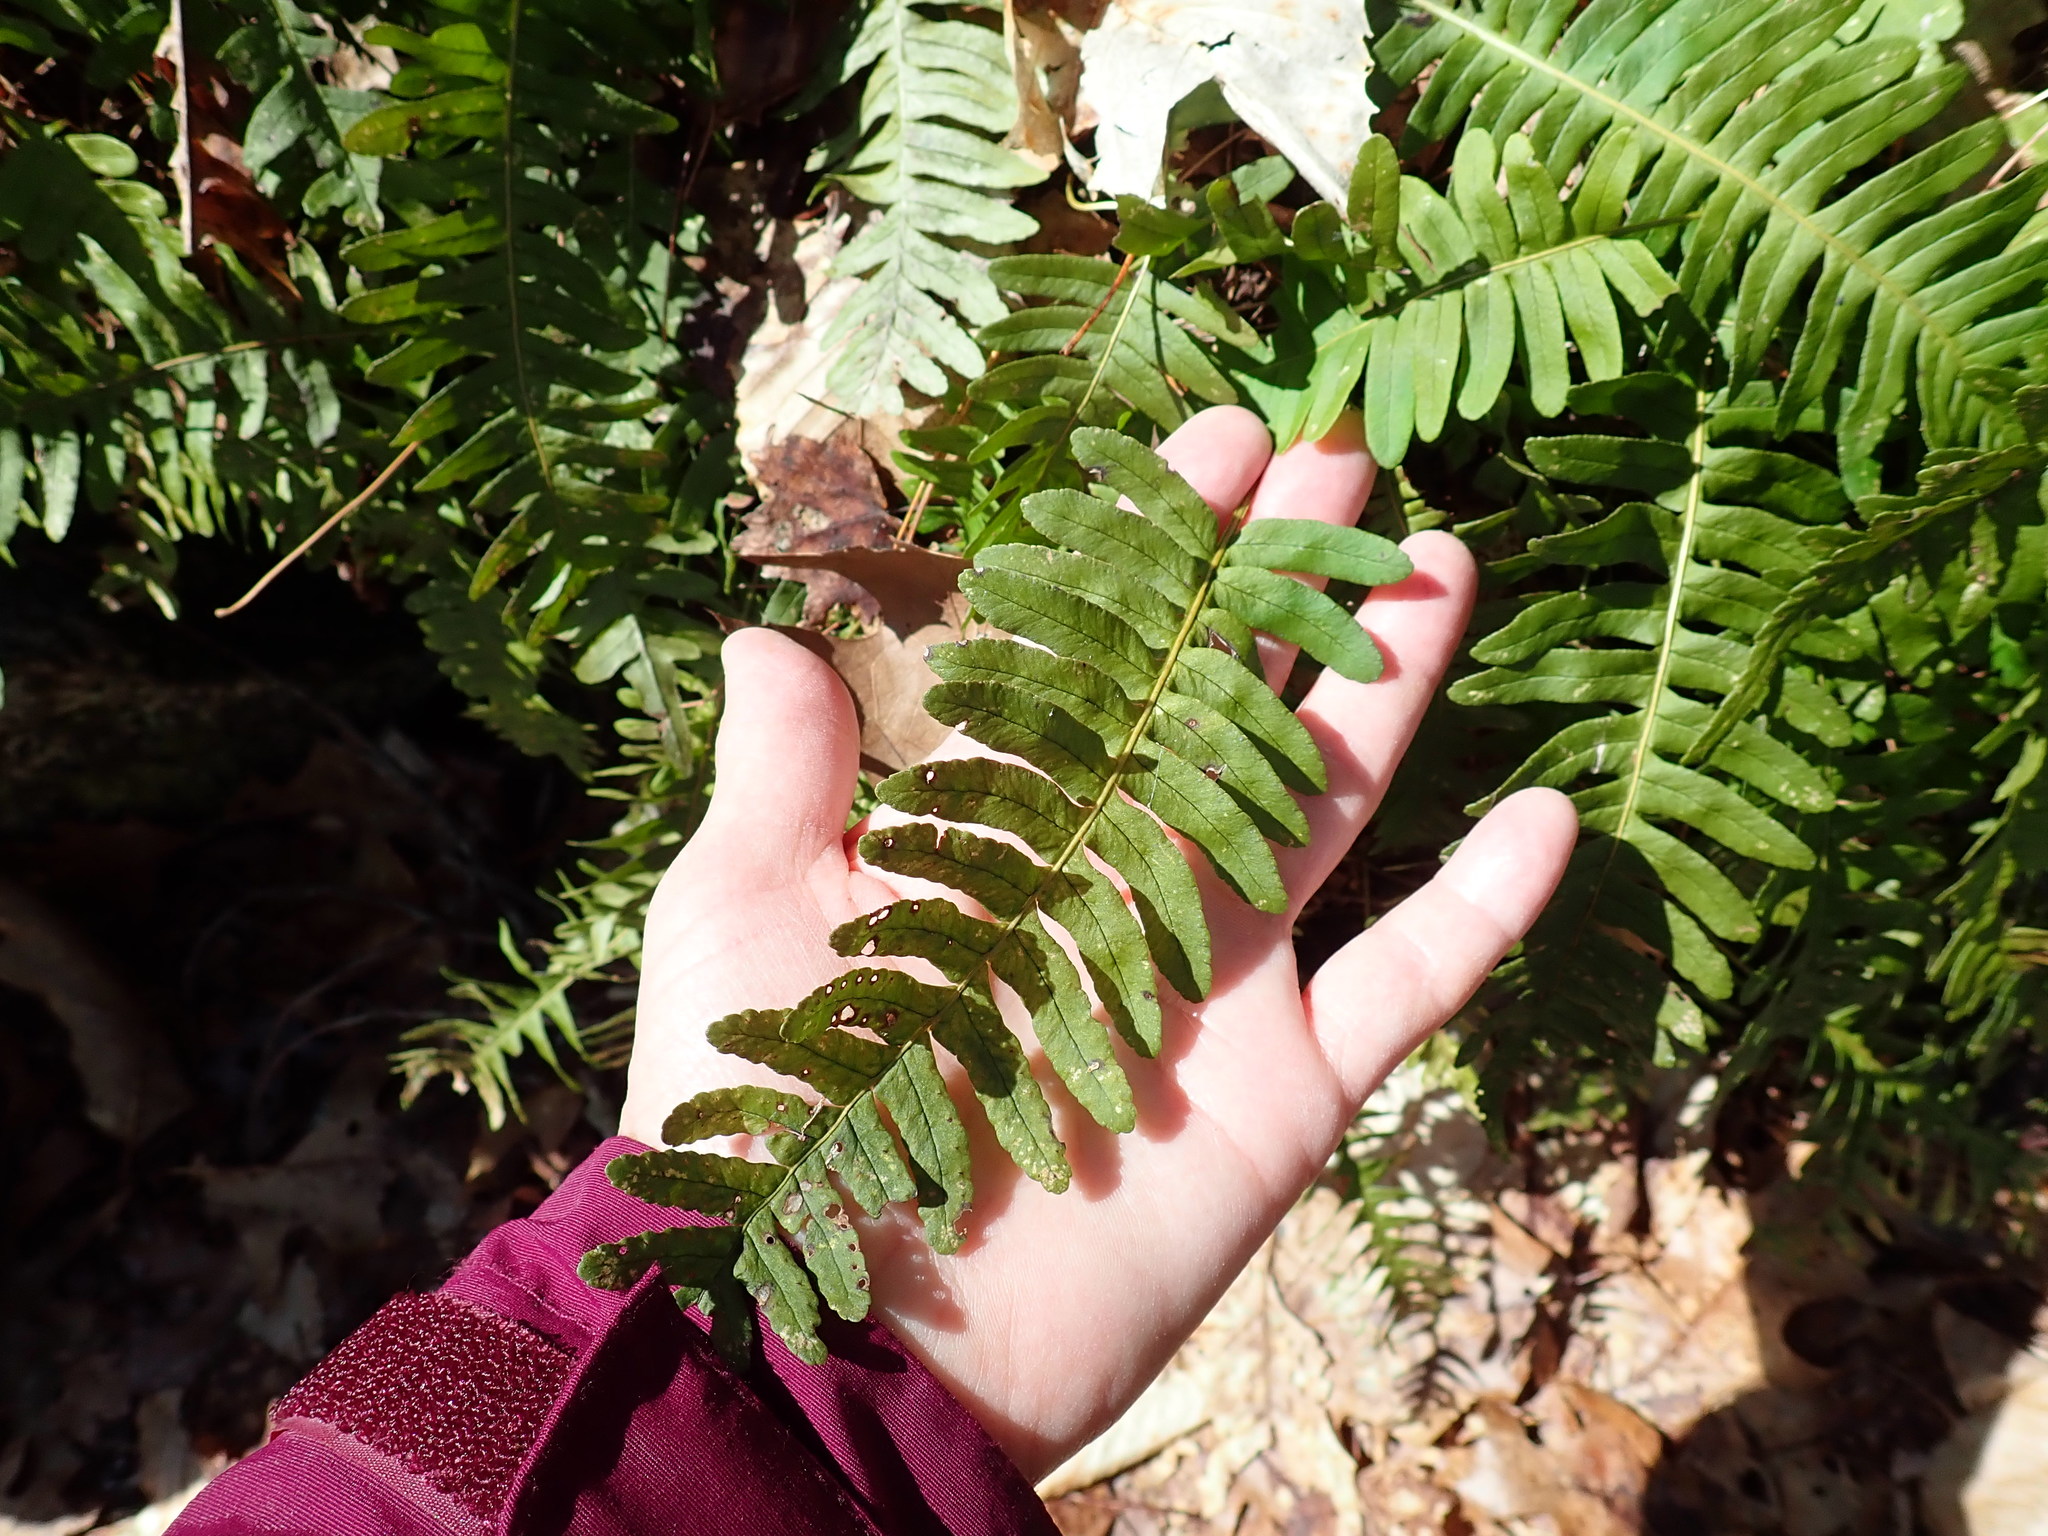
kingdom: Plantae
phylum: Tracheophyta
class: Polypodiopsida
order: Polypodiales
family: Polypodiaceae
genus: Polypodium
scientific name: Polypodium virginianum
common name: American wall fern
